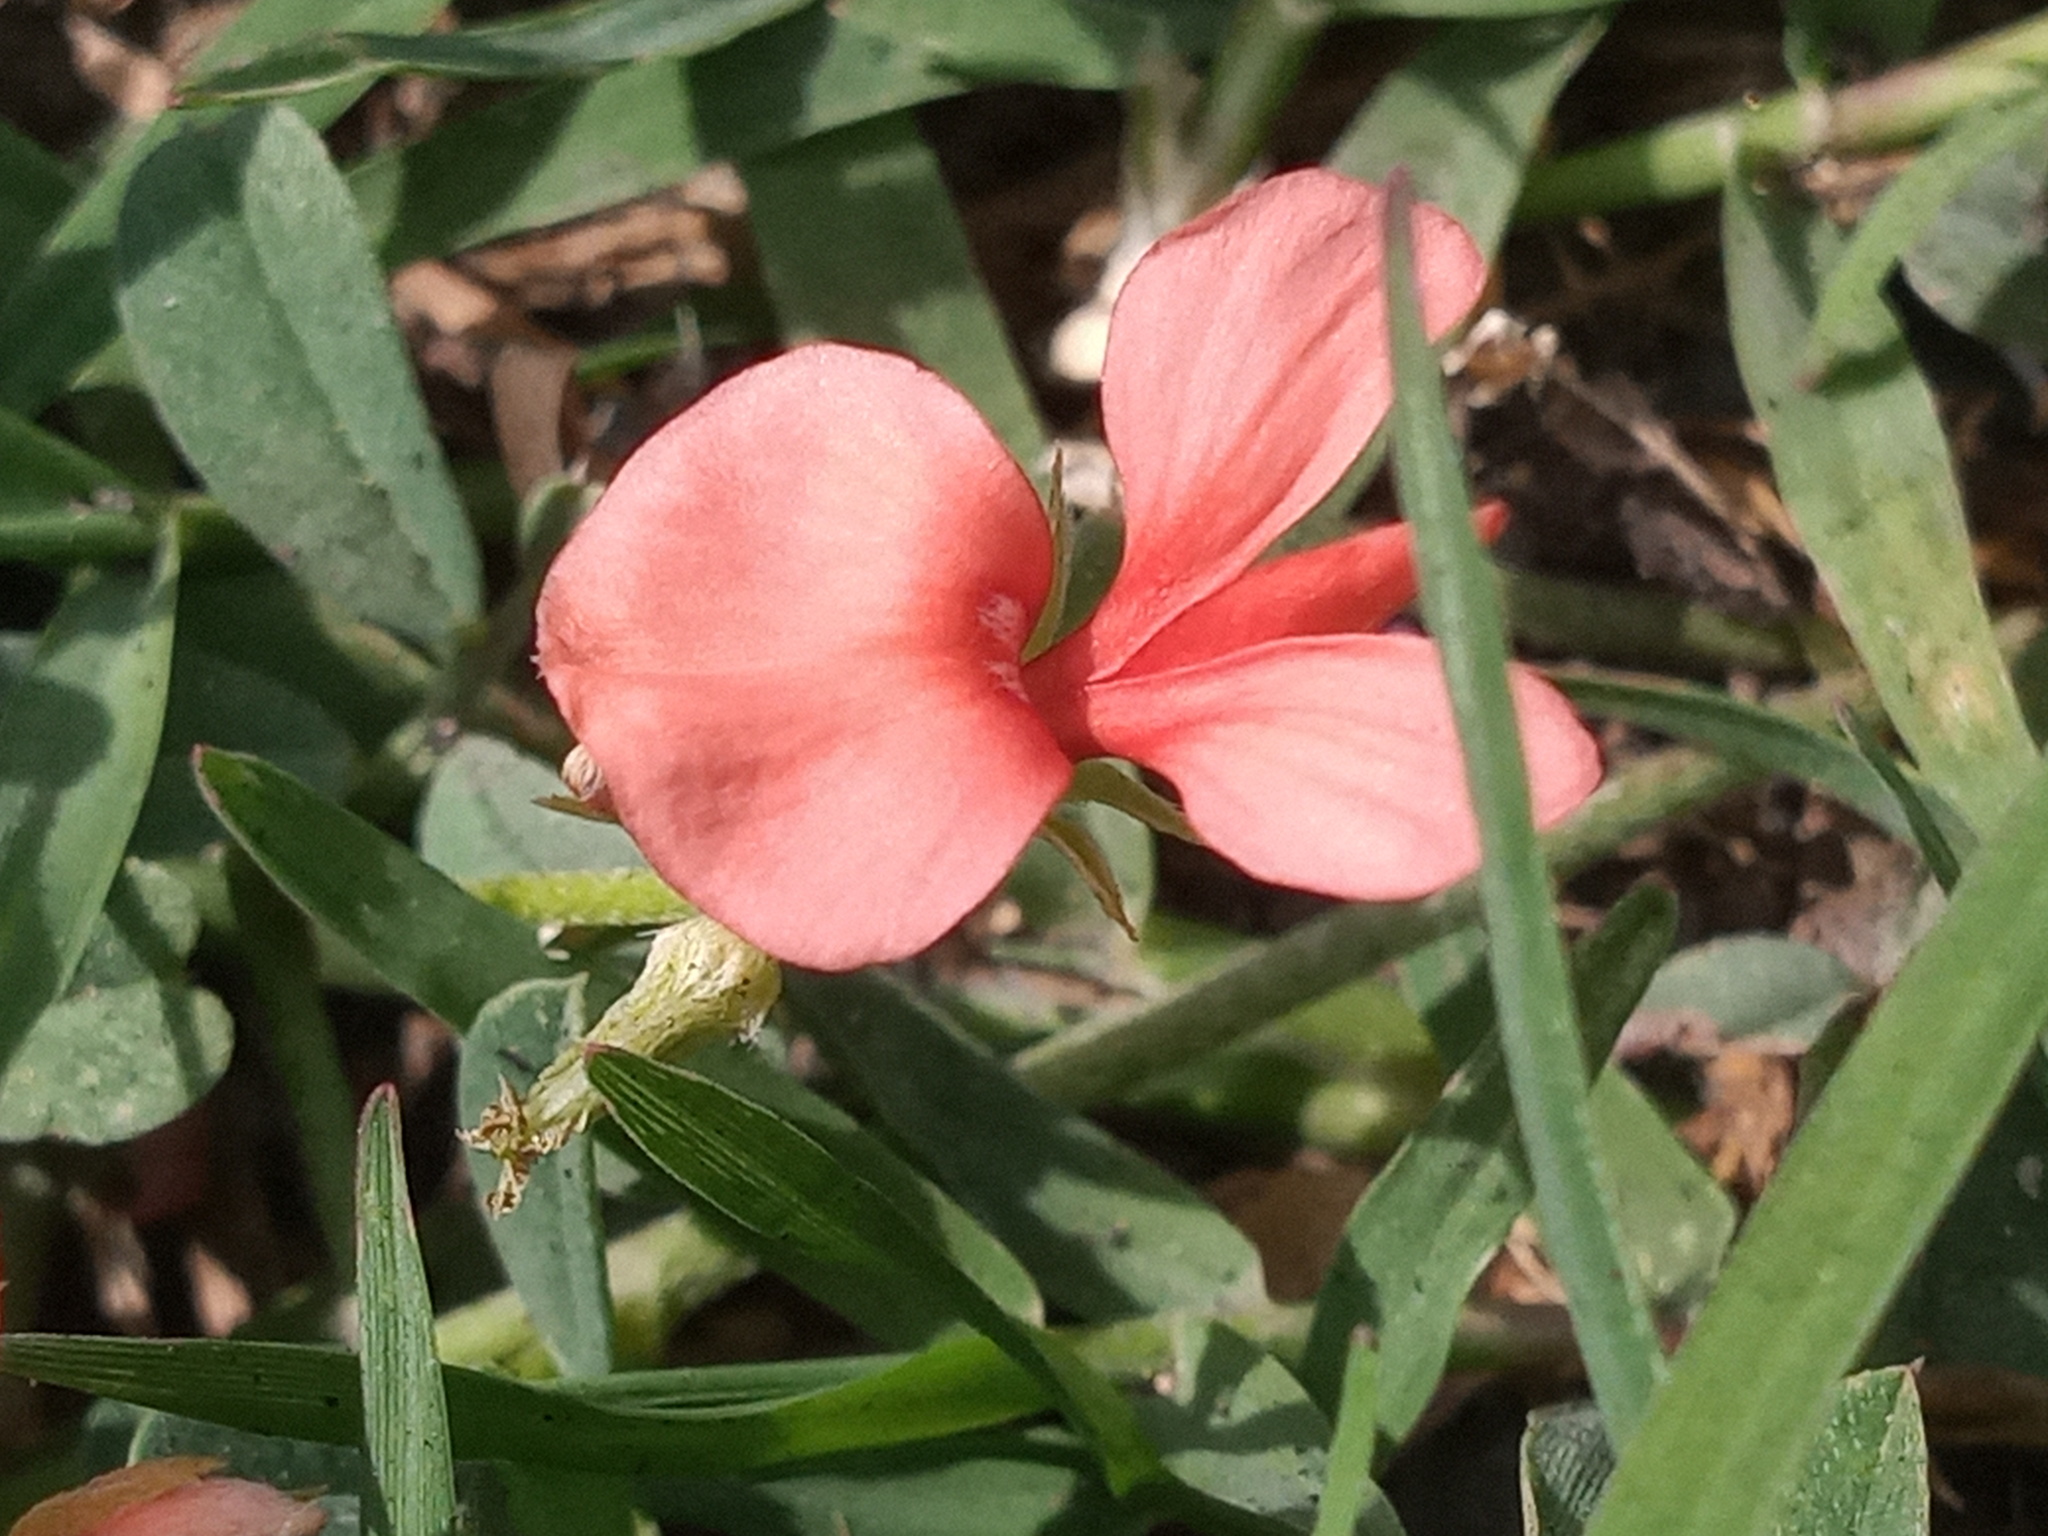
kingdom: Plantae
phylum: Tracheophyta
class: Magnoliopsida
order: Fabales
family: Fabaceae
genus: Indigofera
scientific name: Indigofera miniata
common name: Coast indigo
